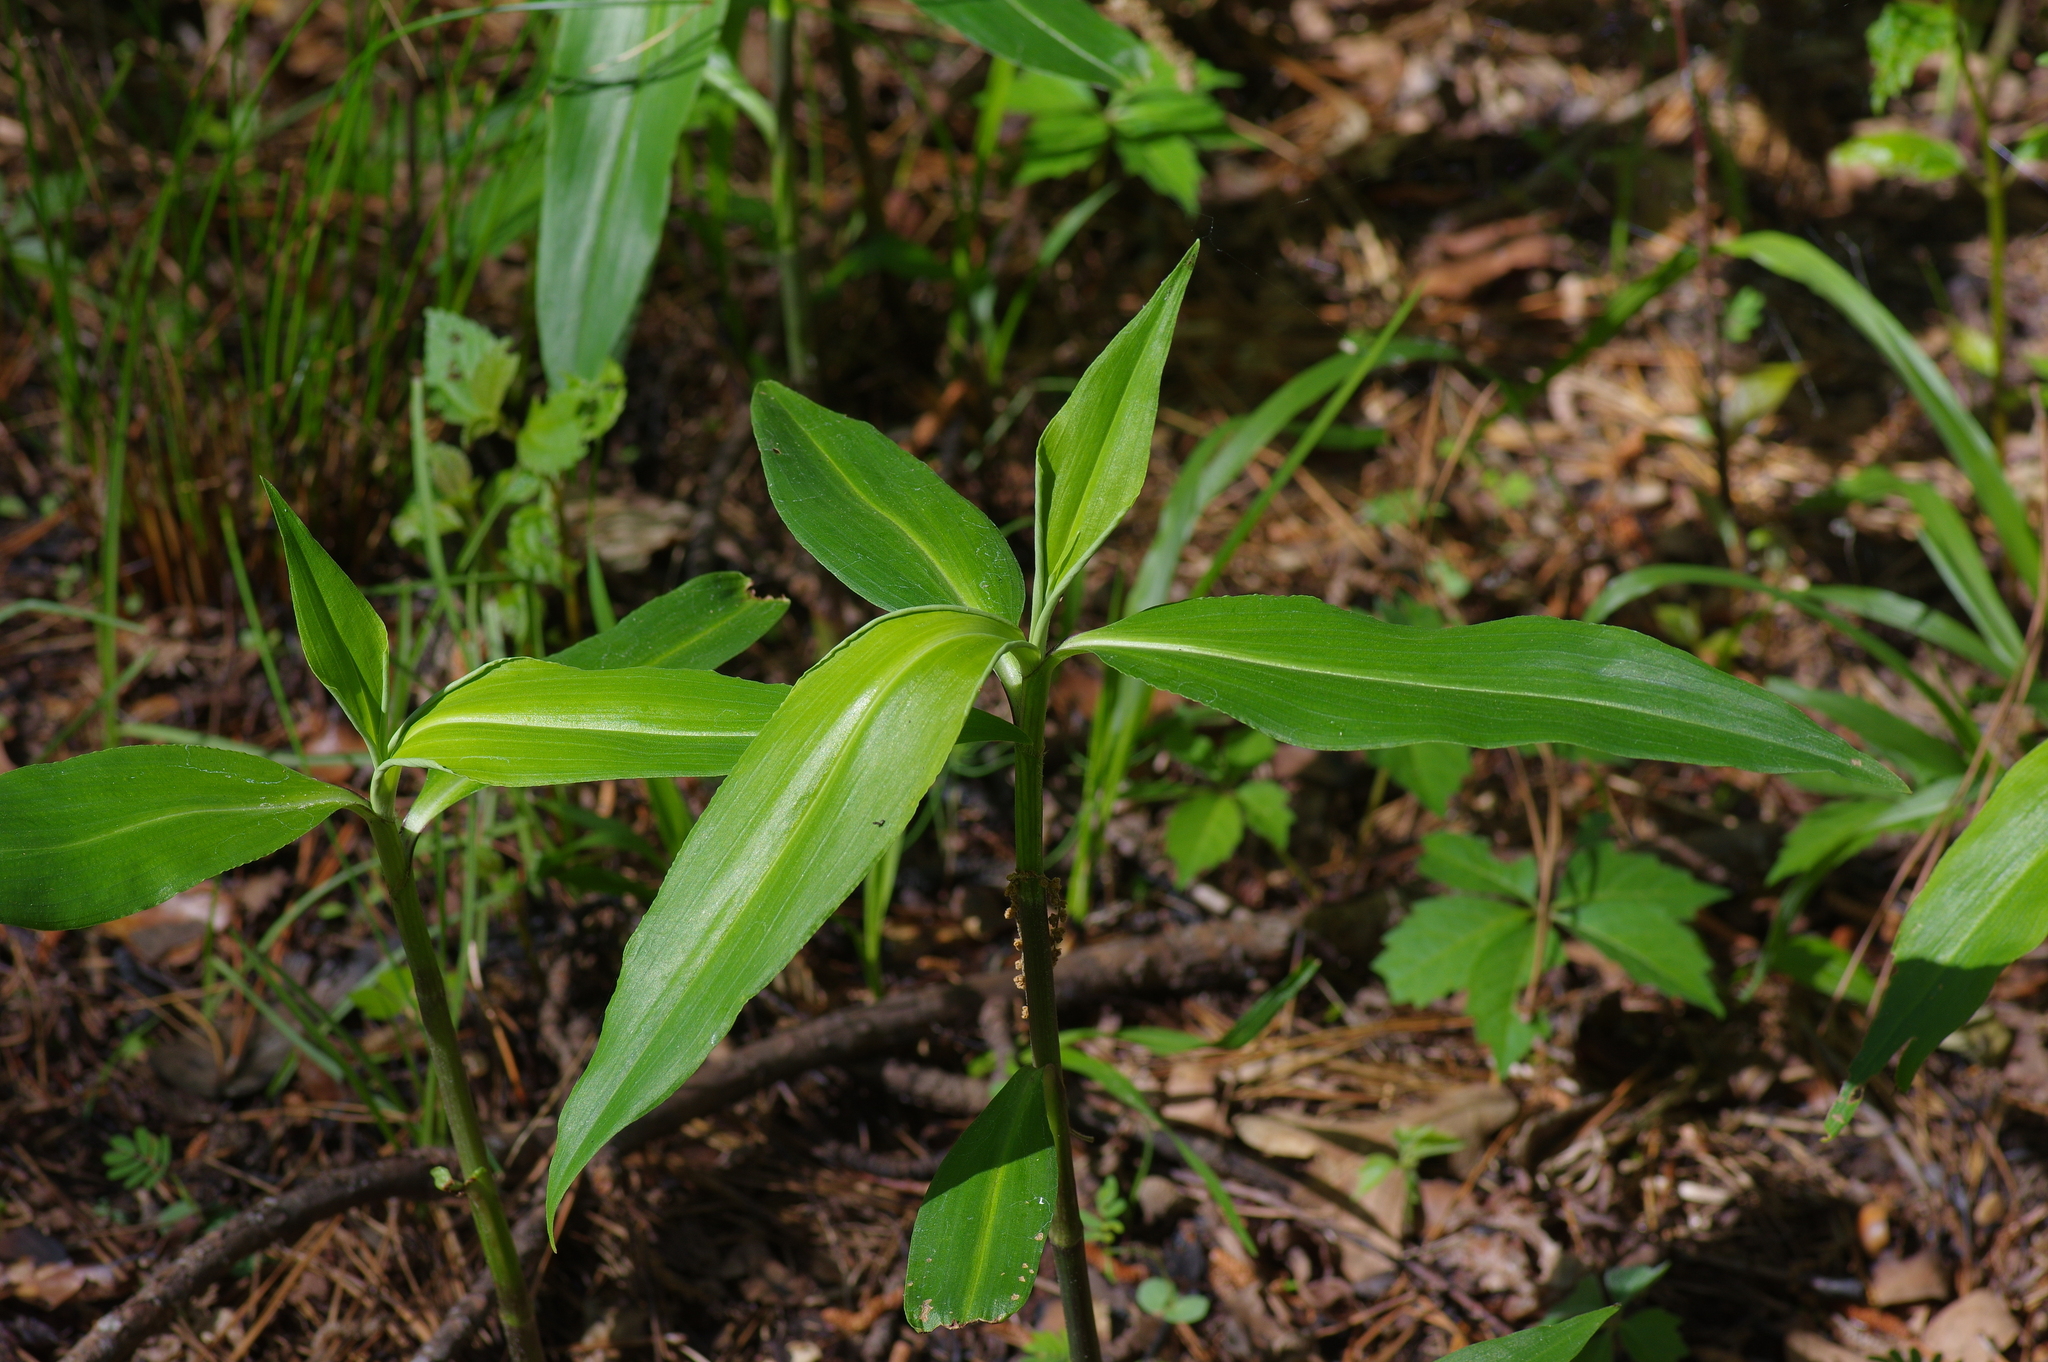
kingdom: Plantae
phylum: Tracheophyta
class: Liliopsida
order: Commelinales
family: Commelinaceae
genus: Commelina
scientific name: Commelina virginica
